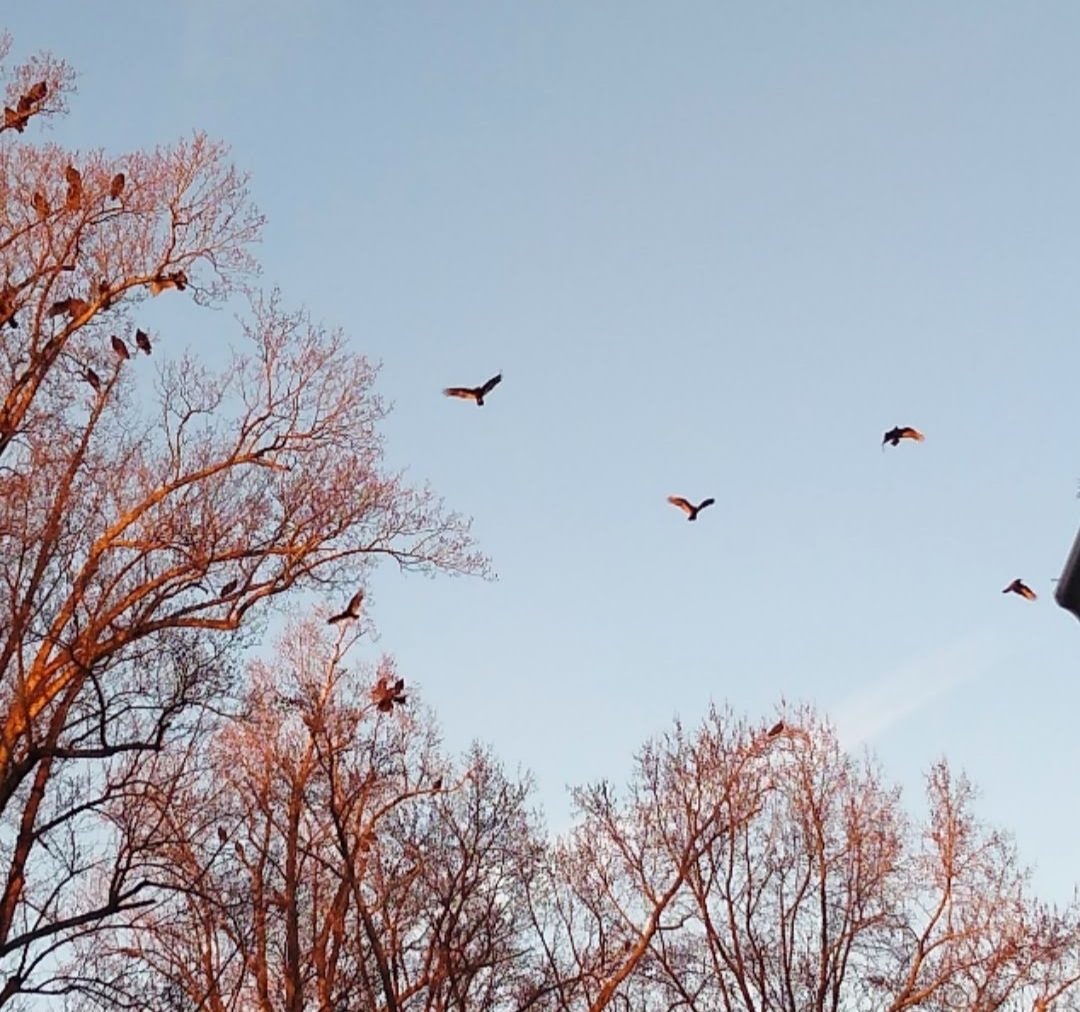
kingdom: Animalia
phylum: Chordata
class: Aves
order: Accipitriformes
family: Cathartidae
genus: Cathartes
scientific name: Cathartes aura
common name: Turkey vulture
